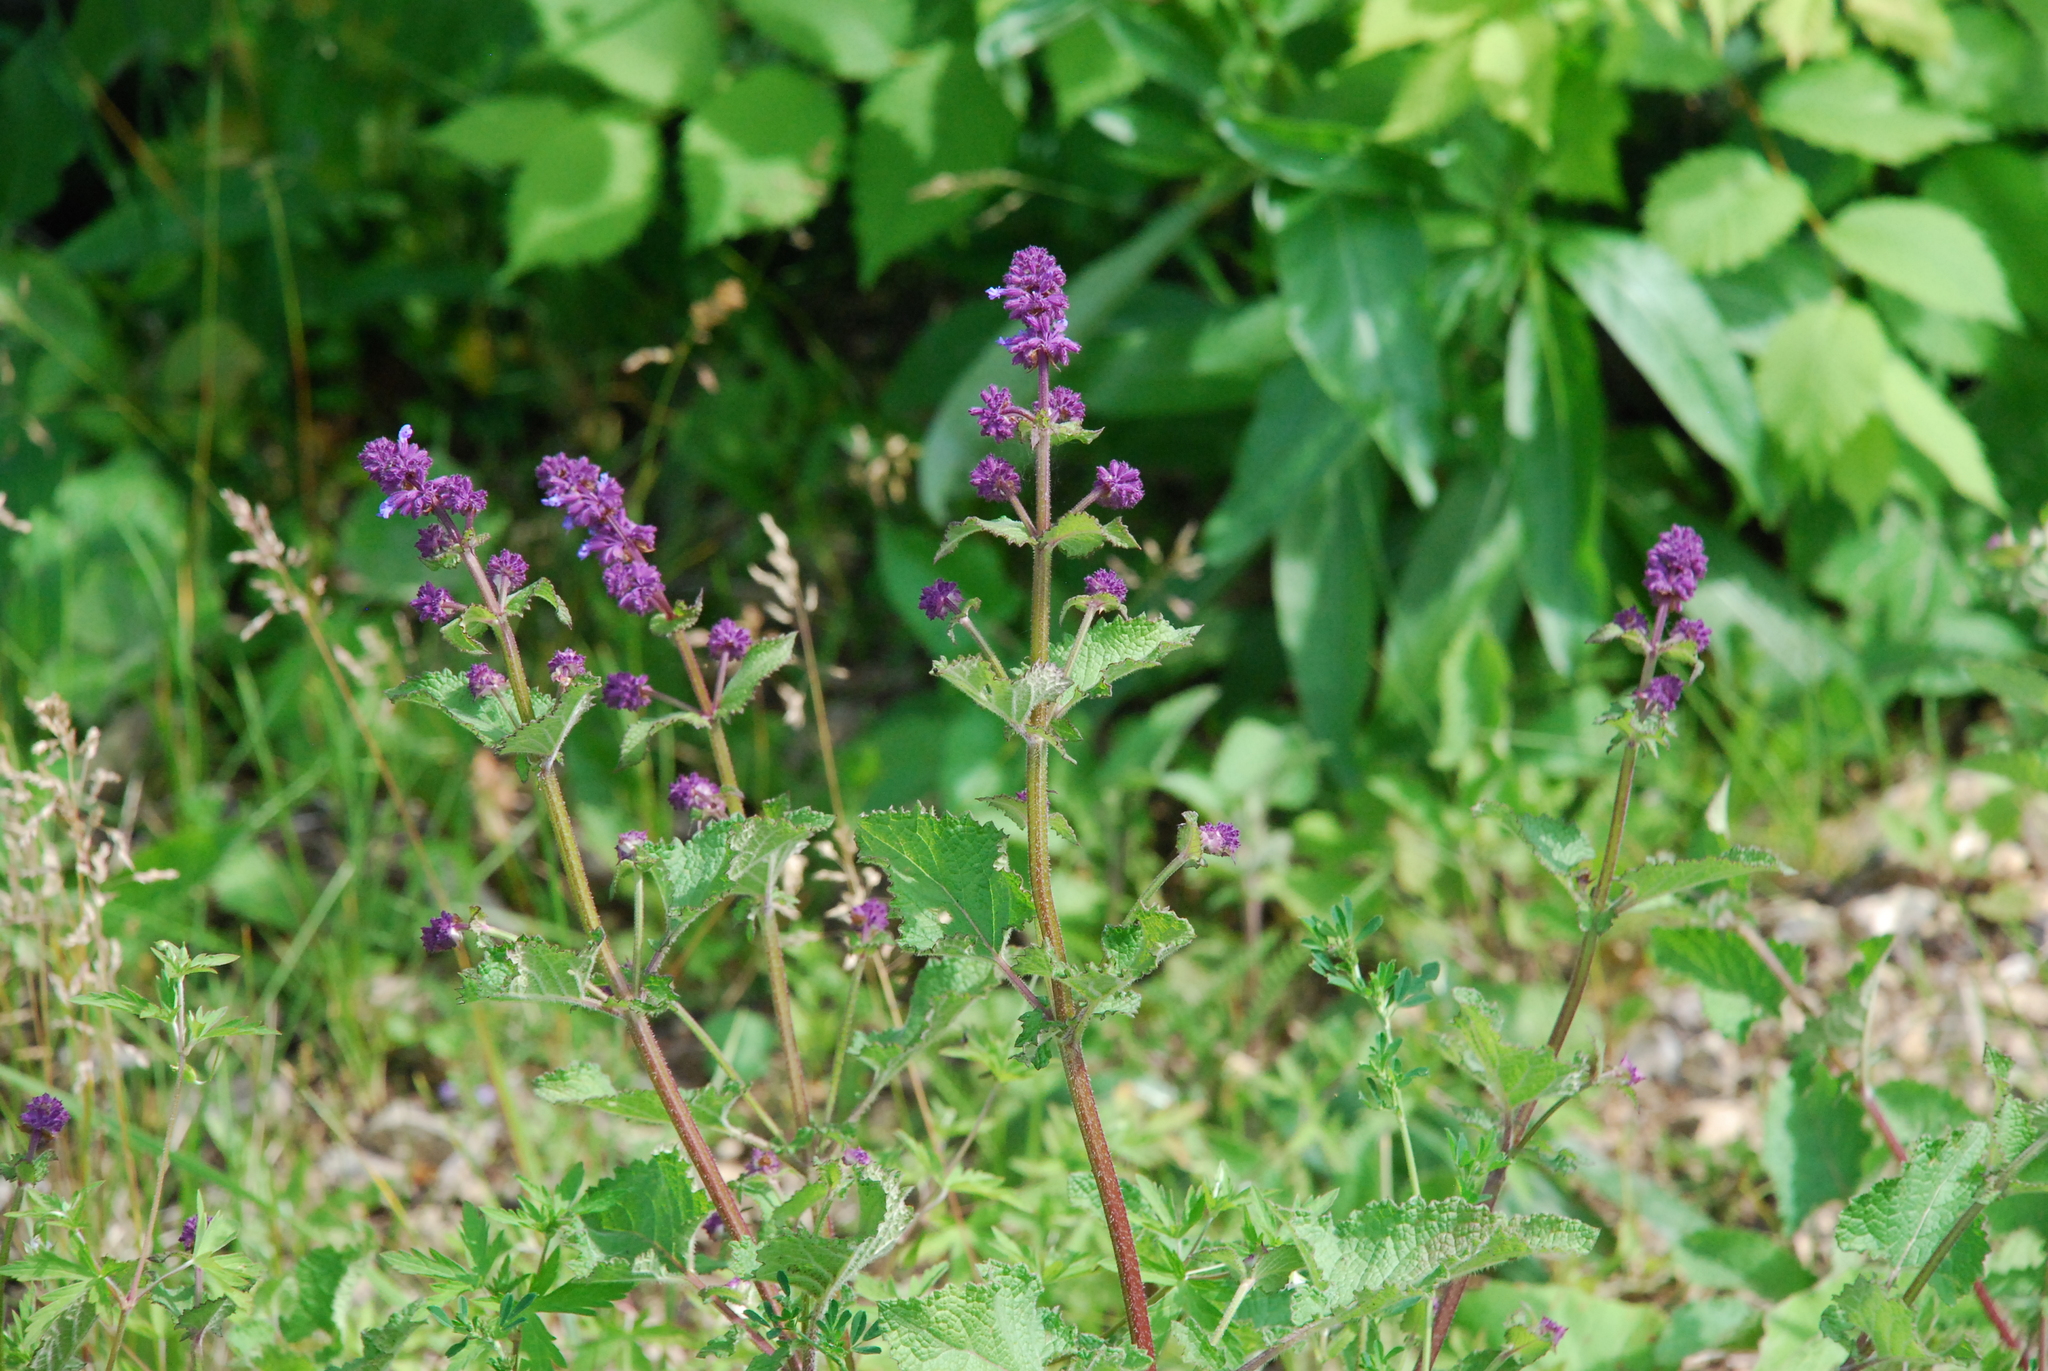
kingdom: Plantae
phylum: Tracheophyta
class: Magnoliopsida
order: Lamiales
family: Lamiaceae
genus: Salvia
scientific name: Salvia verticillata
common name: Whorled clary
